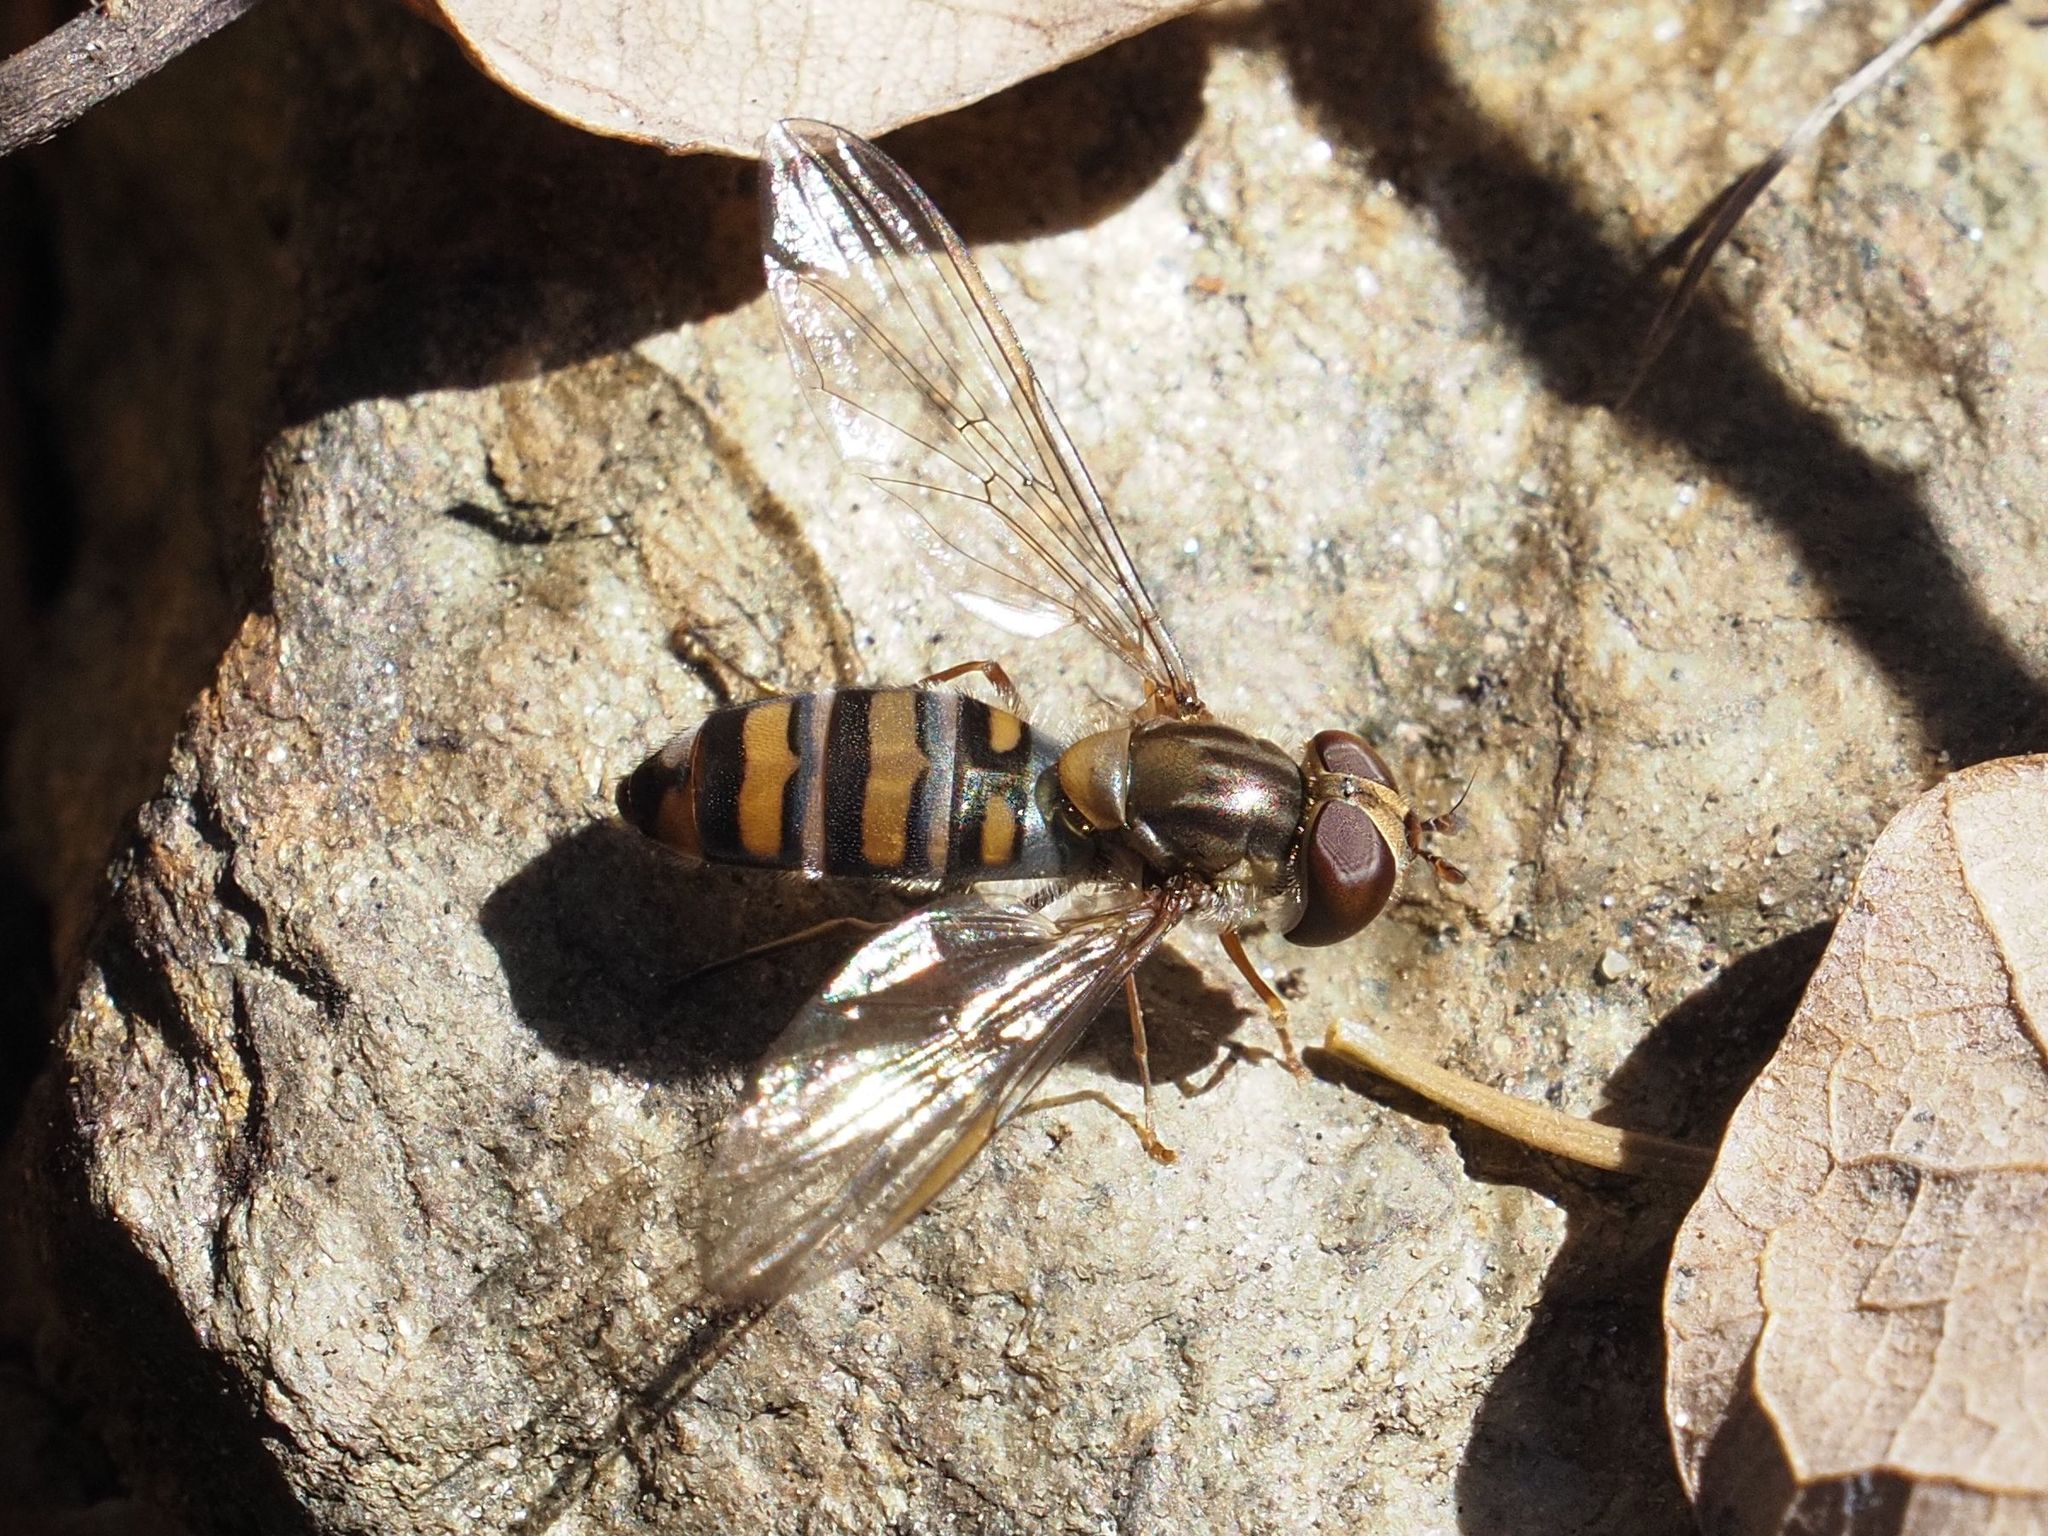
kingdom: Animalia
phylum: Arthropoda
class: Insecta
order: Diptera
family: Syrphidae
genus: Episyrphus
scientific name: Episyrphus balteatus
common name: Marmalade hoverfly
